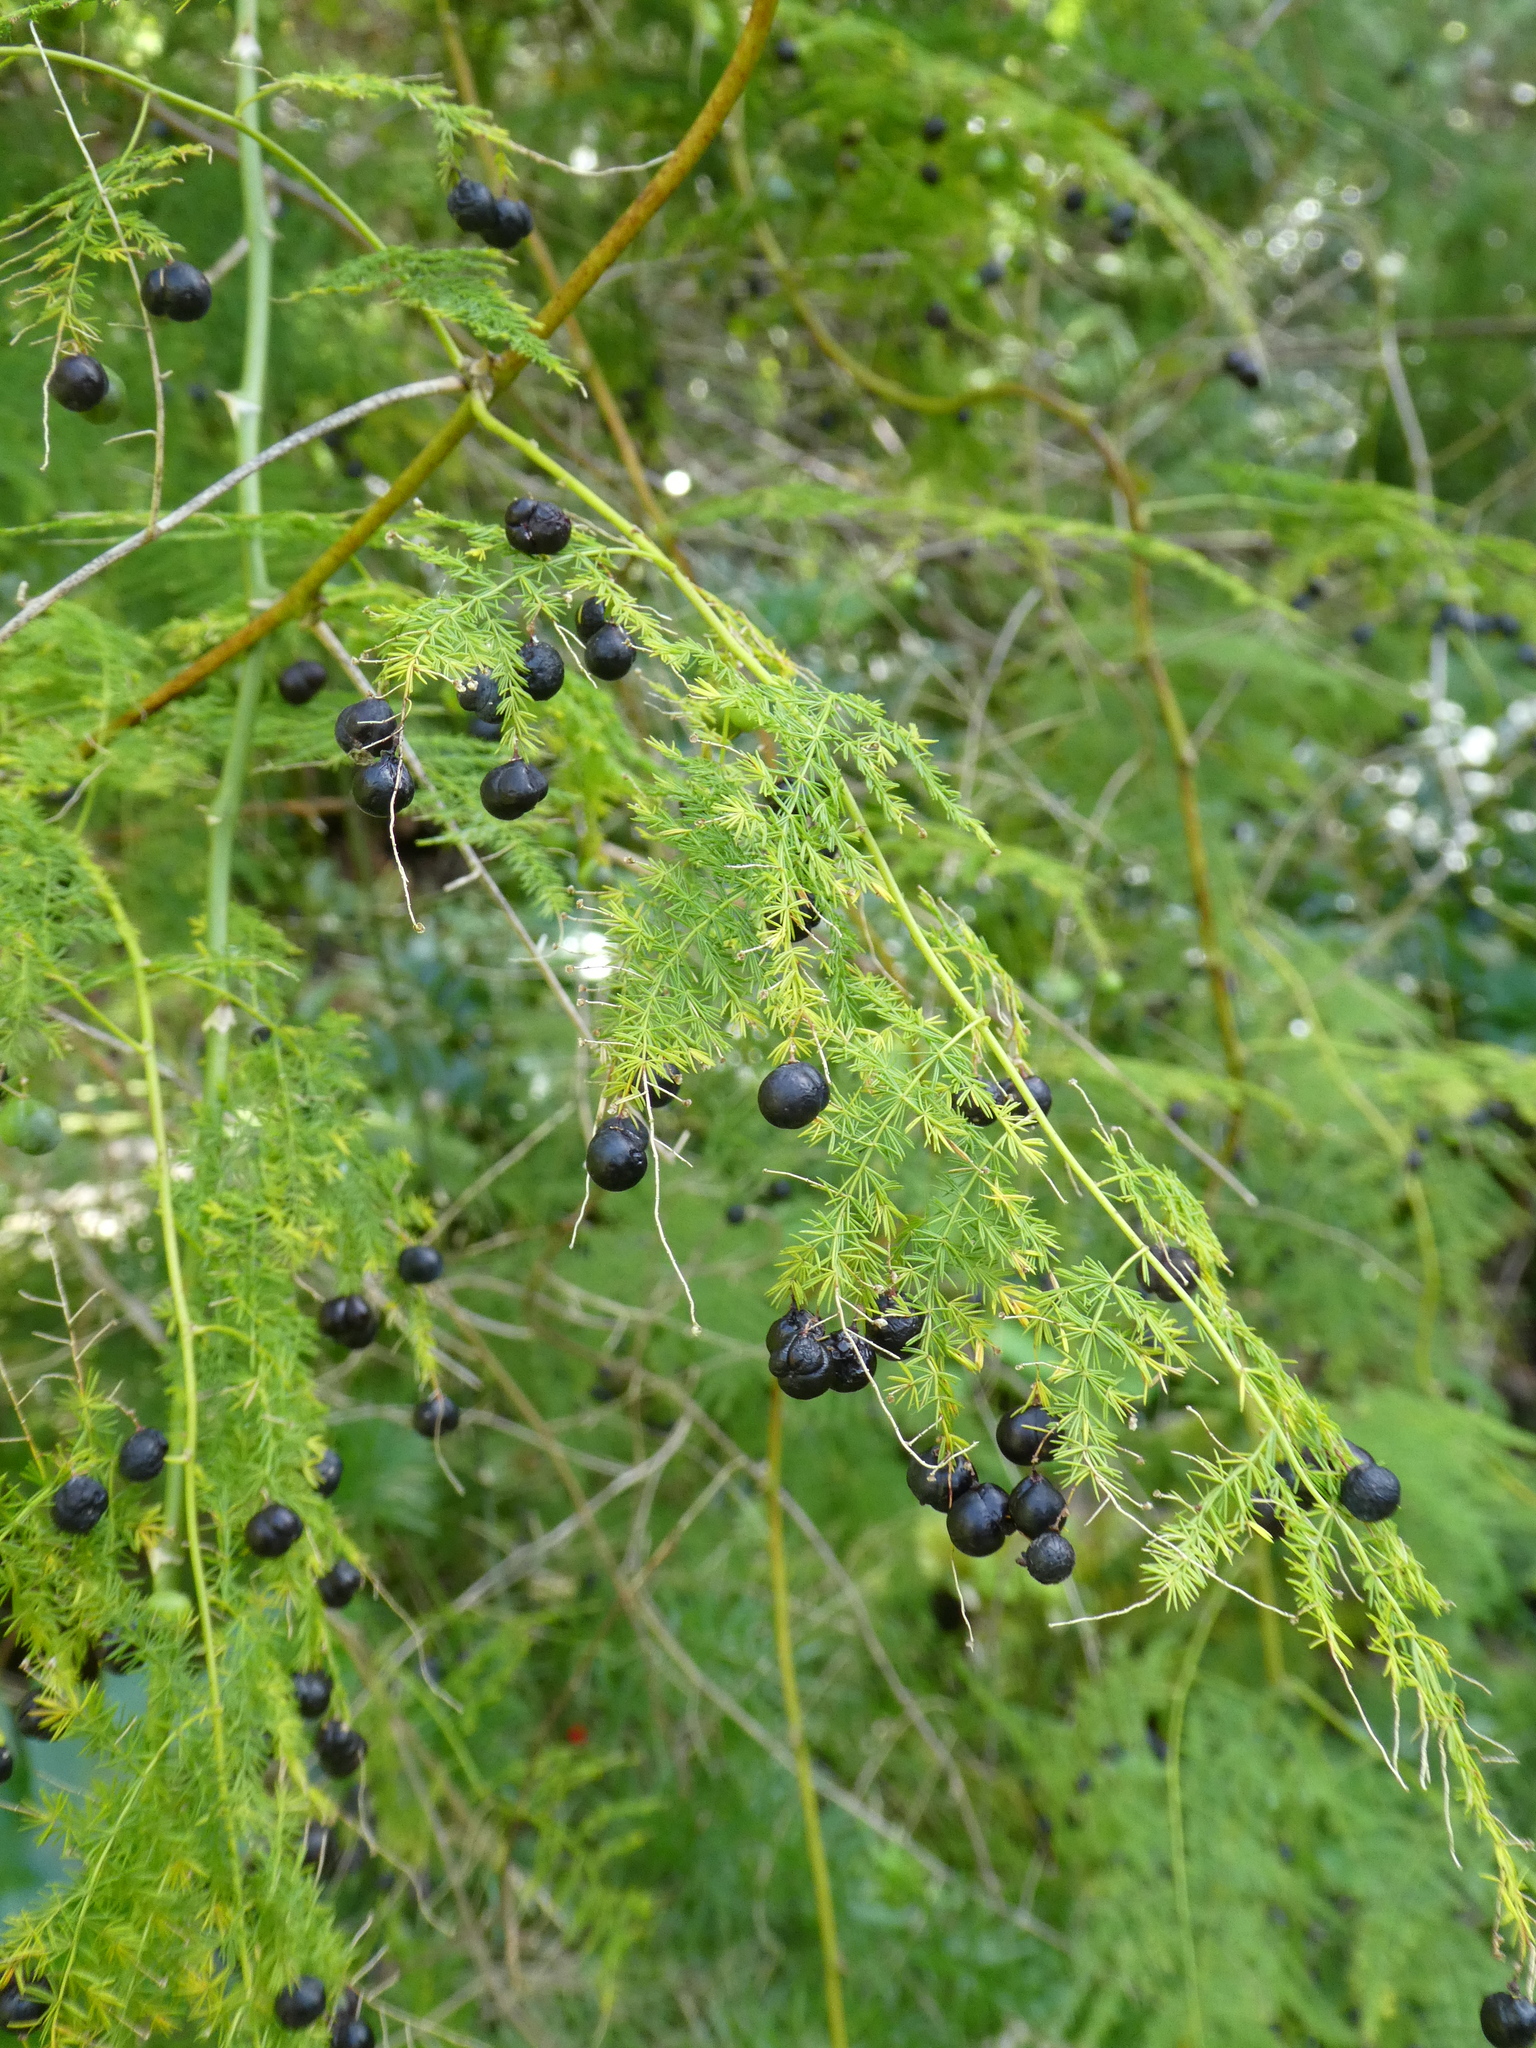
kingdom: Plantae
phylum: Tracheophyta
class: Liliopsida
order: Asparagales
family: Asparagaceae
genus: Asparagus
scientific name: Asparagus setaceus
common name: Common asparagus fern
